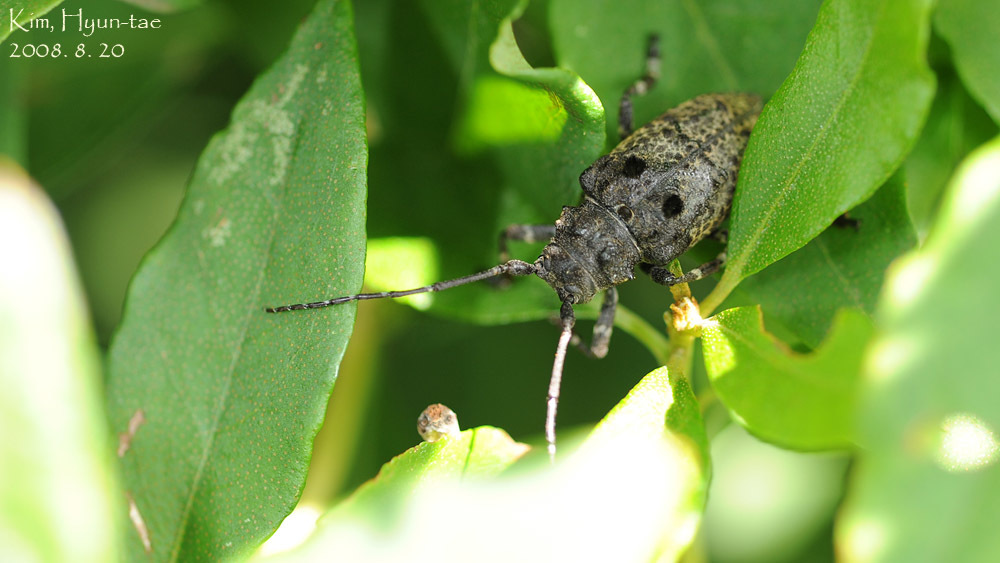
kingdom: Animalia
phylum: Arthropoda
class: Insecta
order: Coleoptera
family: Cerambycidae
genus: Moechotypa
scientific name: Moechotypa diphysis
